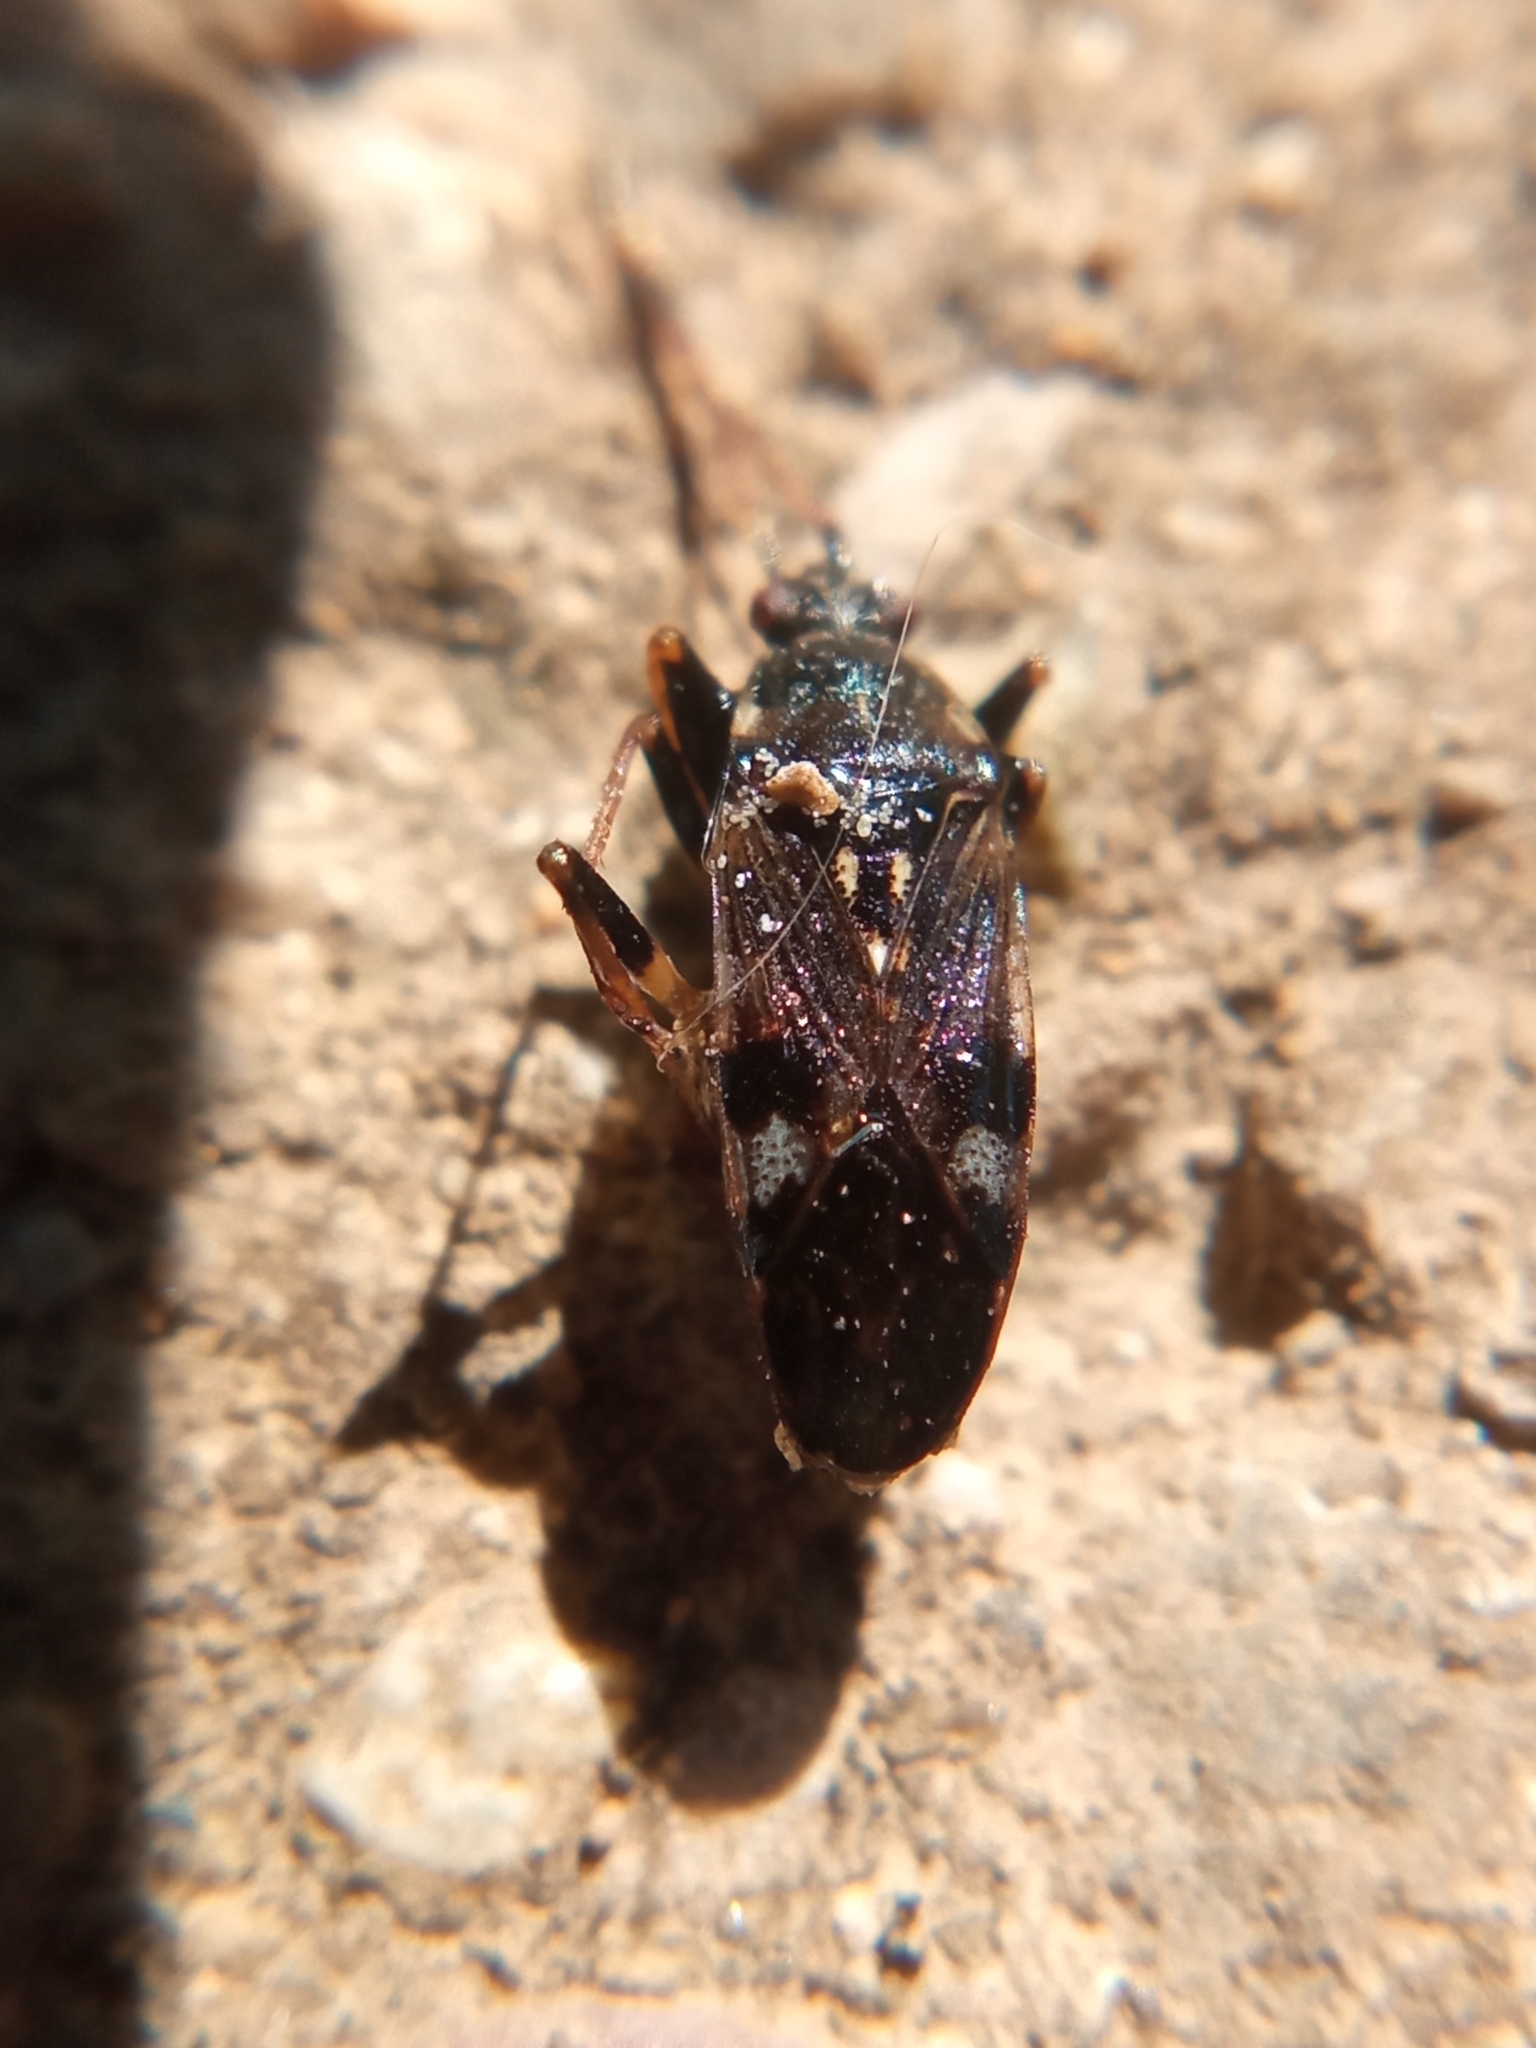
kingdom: Animalia
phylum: Arthropoda
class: Insecta
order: Hemiptera
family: Rhyparochromidae
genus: Beosus
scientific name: Beosus maritimus
